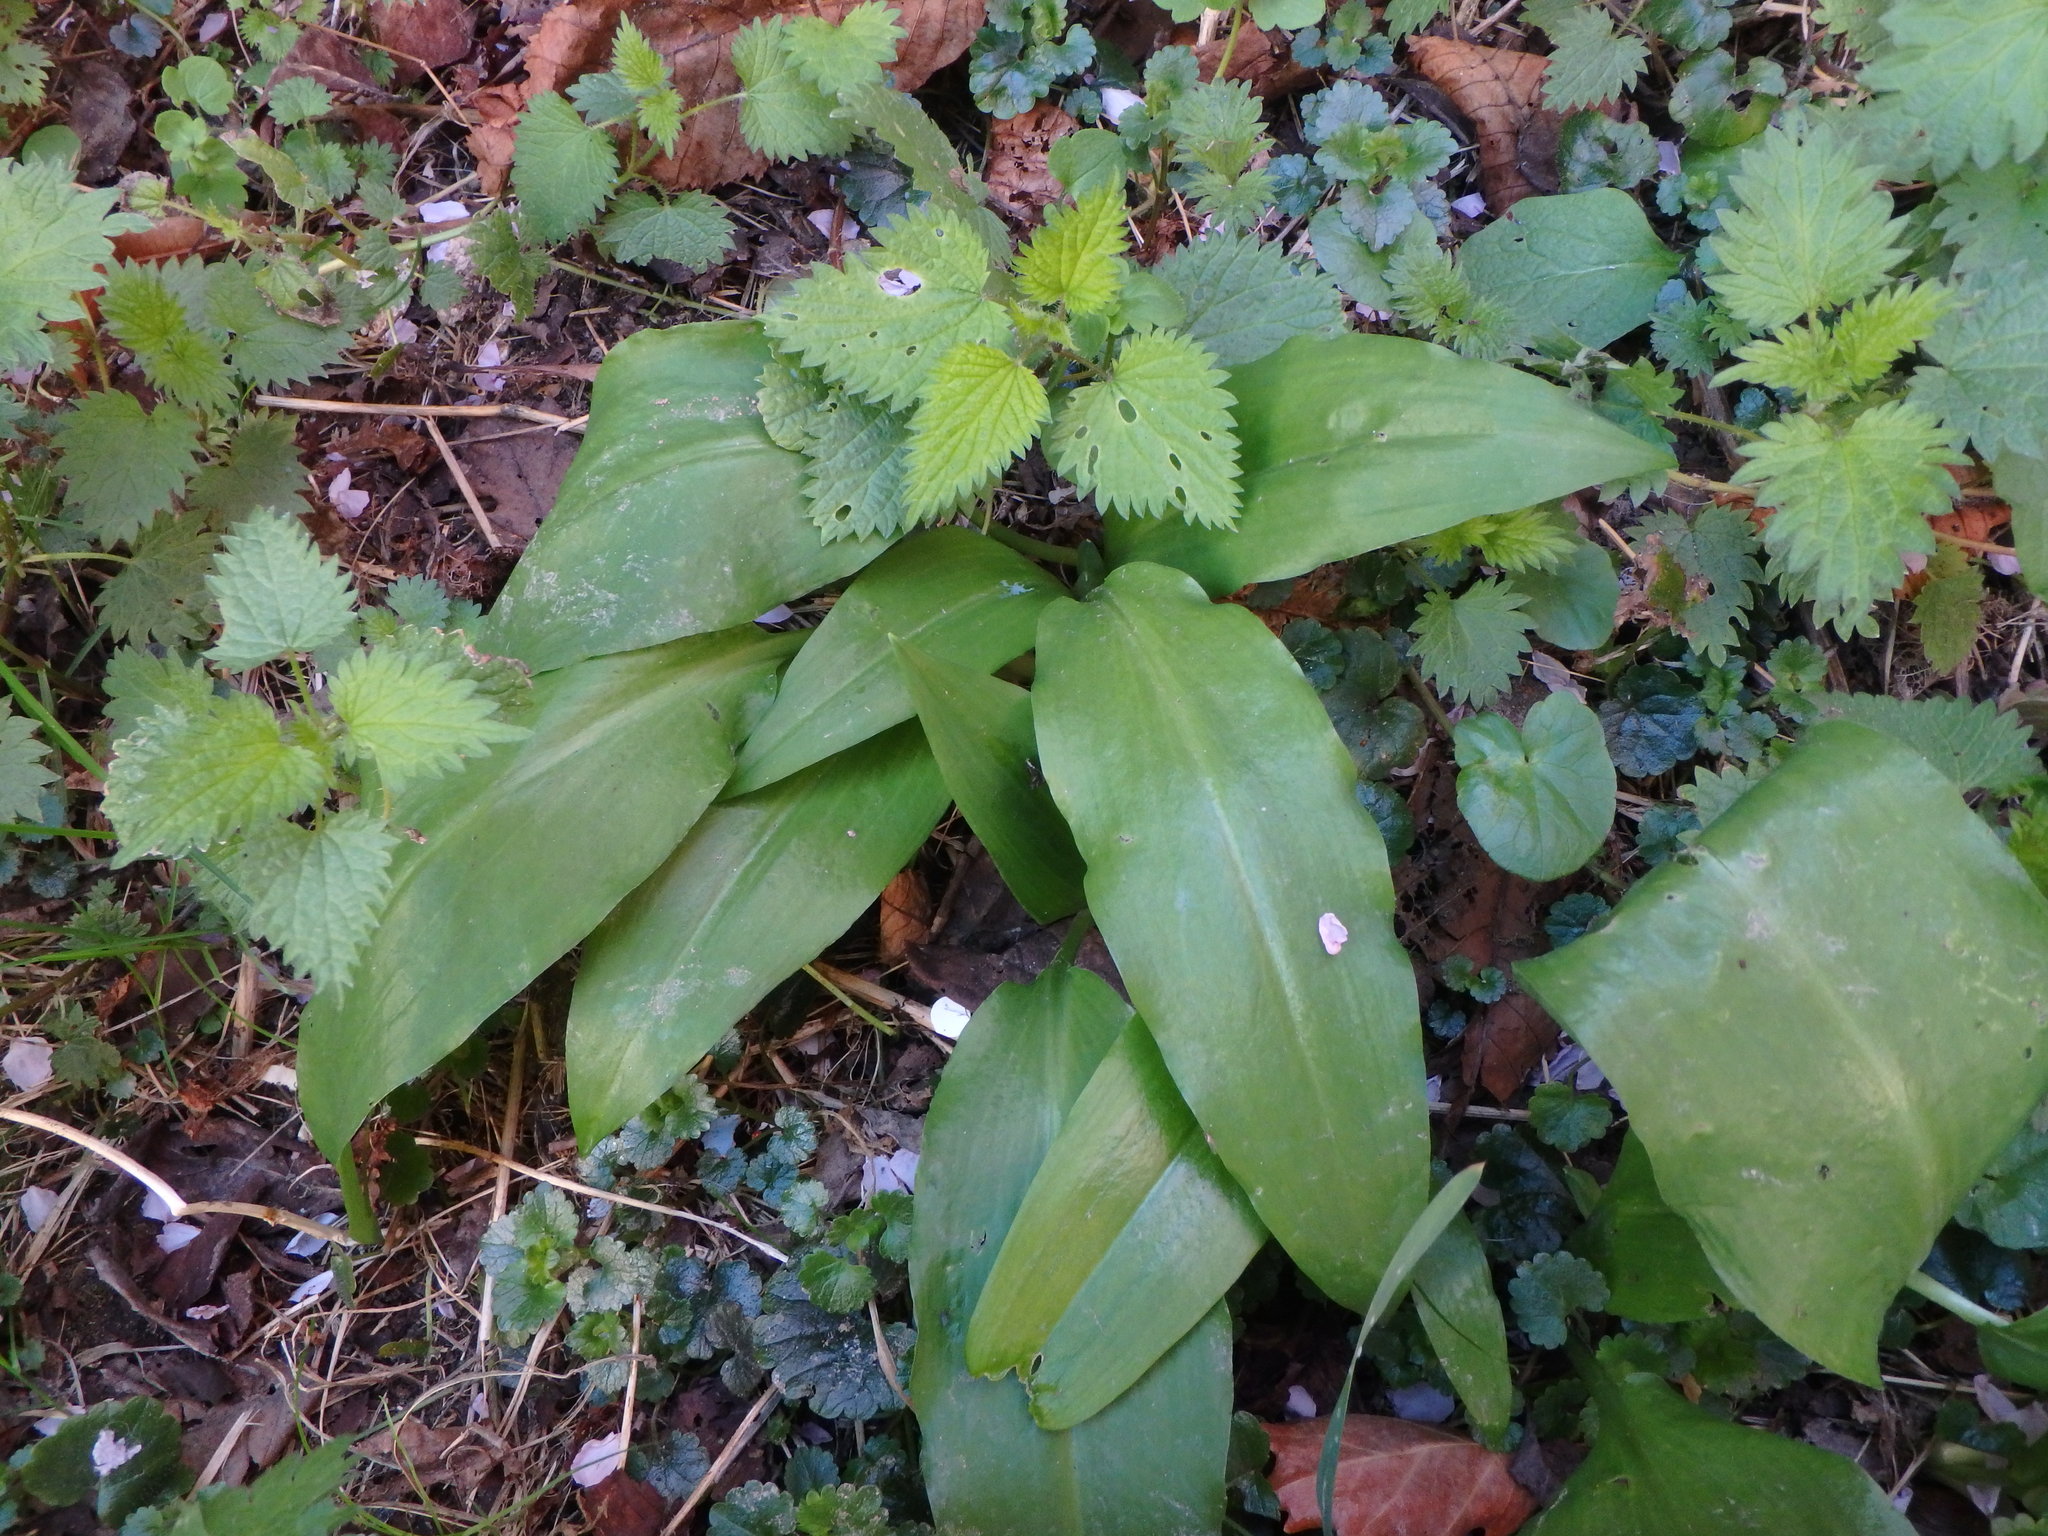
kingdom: Plantae
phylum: Tracheophyta
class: Liliopsida
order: Asparagales
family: Amaryllidaceae
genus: Allium
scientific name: Allium ursinum
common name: Ramsons
